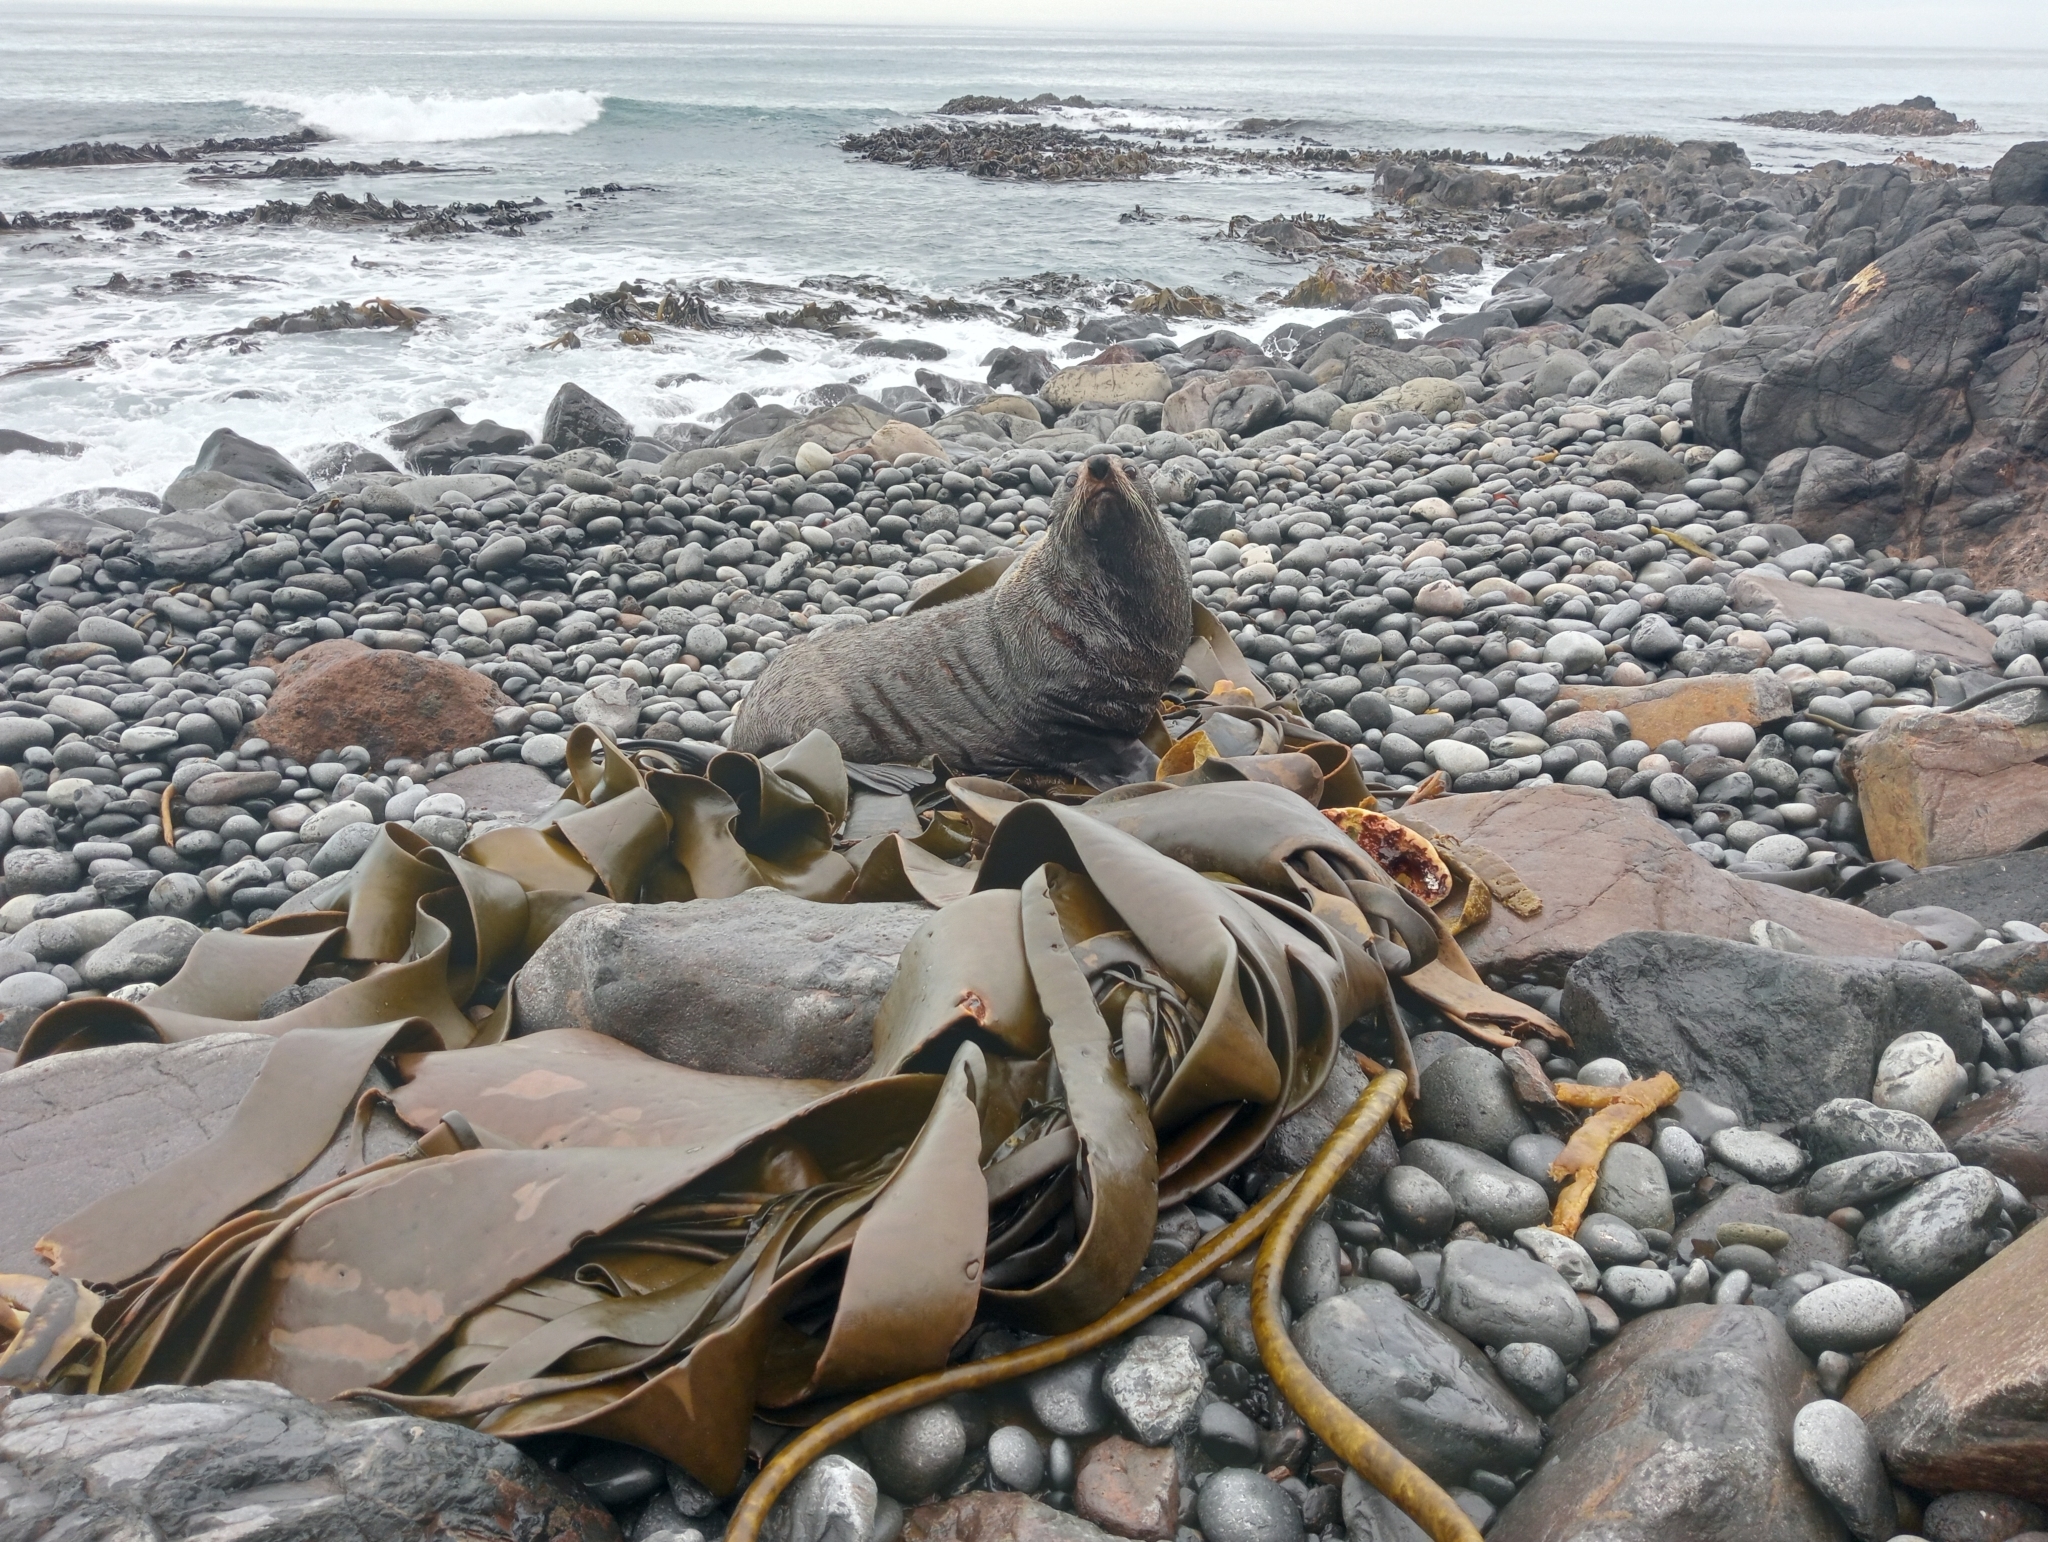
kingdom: Animalia
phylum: Chordata
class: Mammalia
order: Carnivora
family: Otariidae
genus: Arctocephalus
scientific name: Arctocephalus forsteri
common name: New zealand fur seal
